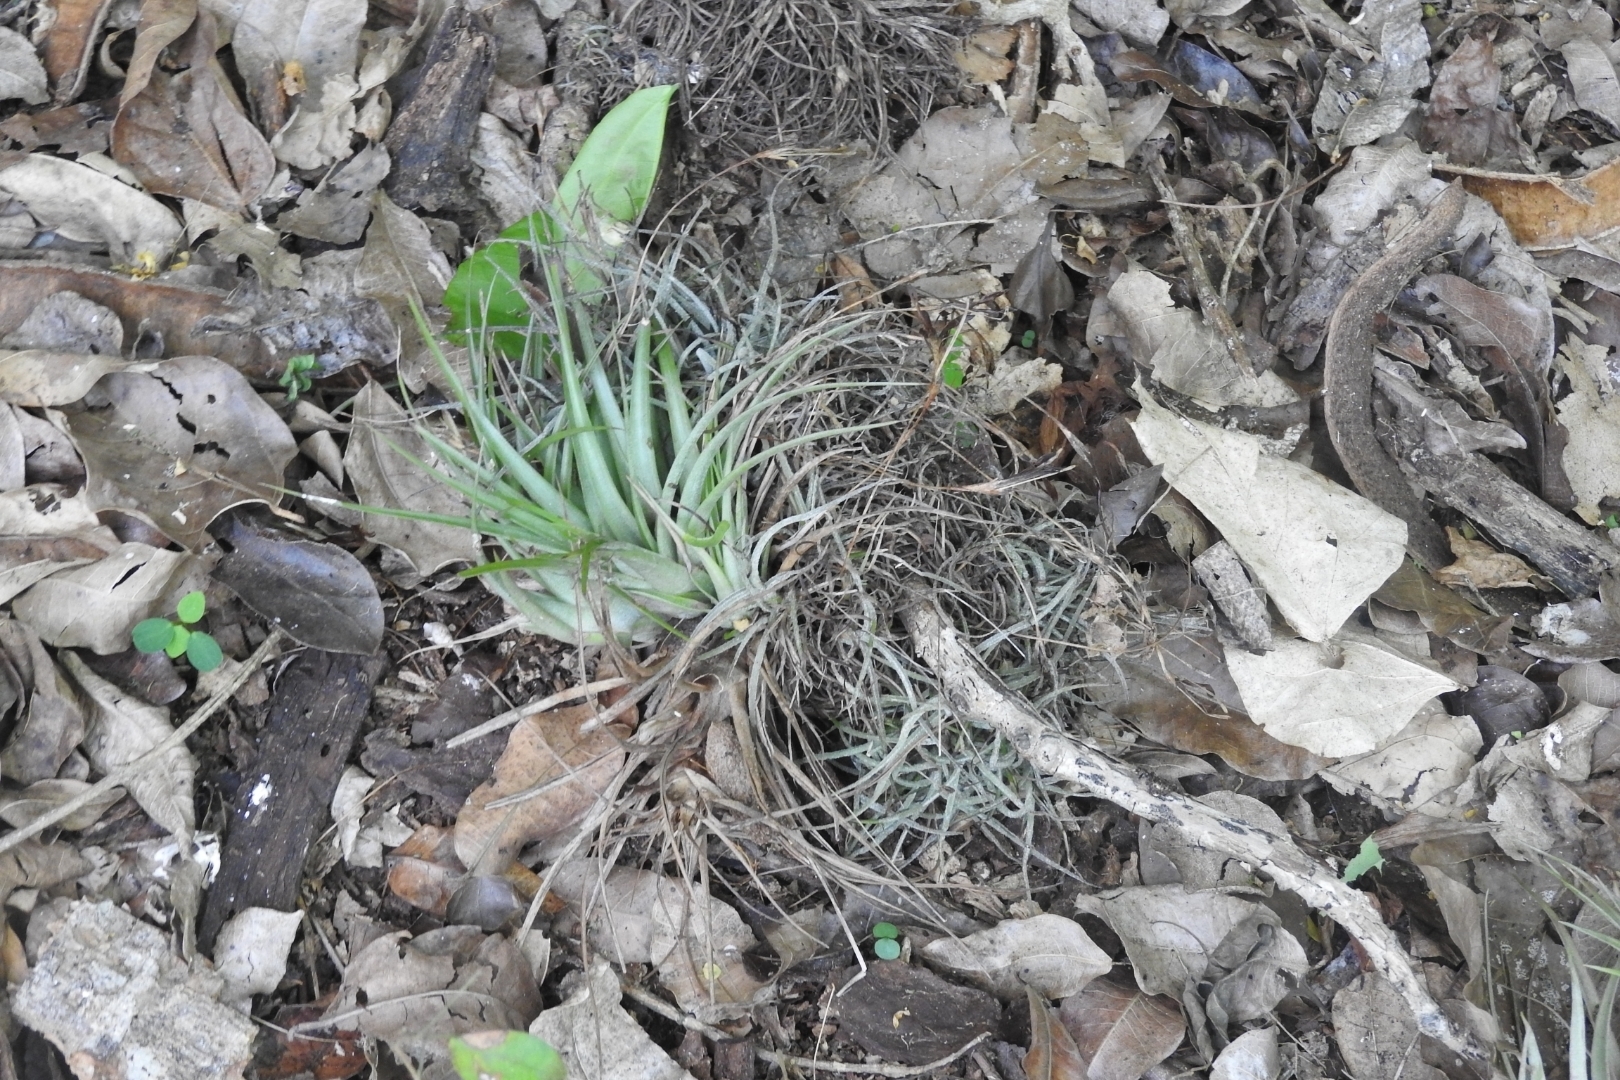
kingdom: Plantae
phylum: Tracheophyta
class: Liliopsida
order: Poales
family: Bromeliaceae
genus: Tillandsia
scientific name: Tillandsia schiedeana
